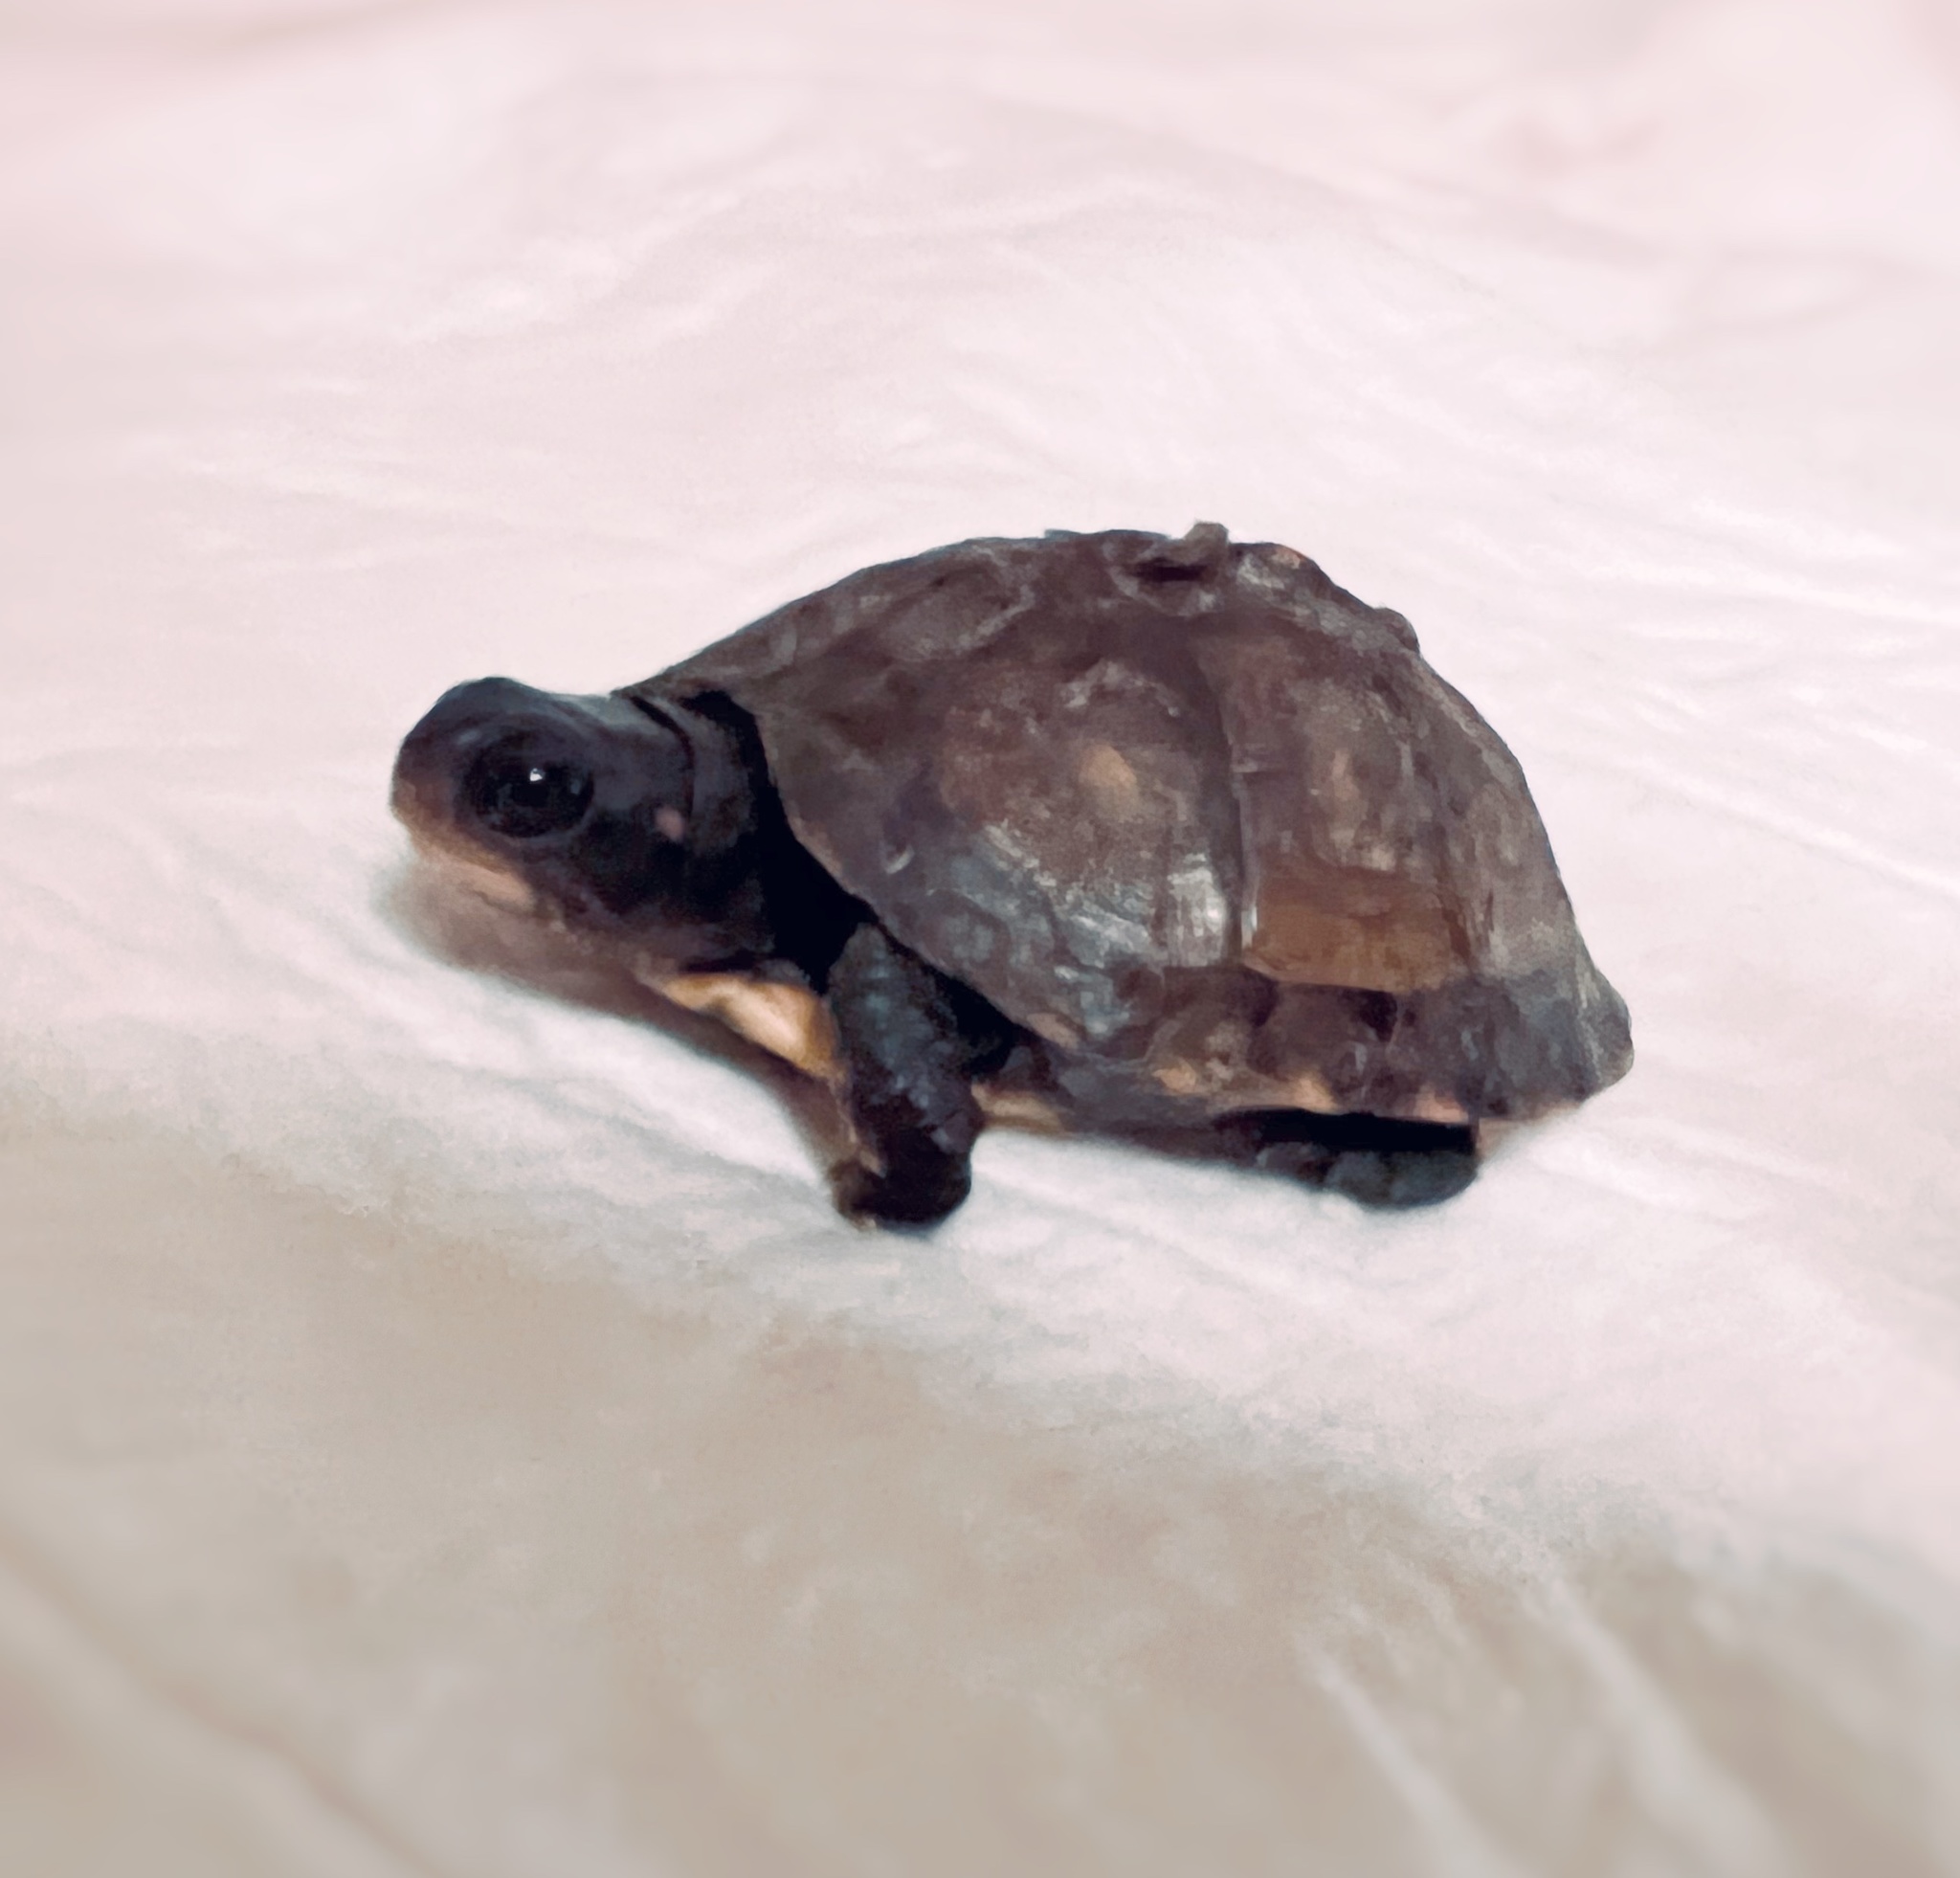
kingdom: Animalia
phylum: Chordata
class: Testudines
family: Emydidae
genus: Terrapene
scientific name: Terrapene carolina
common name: Common box turtle
